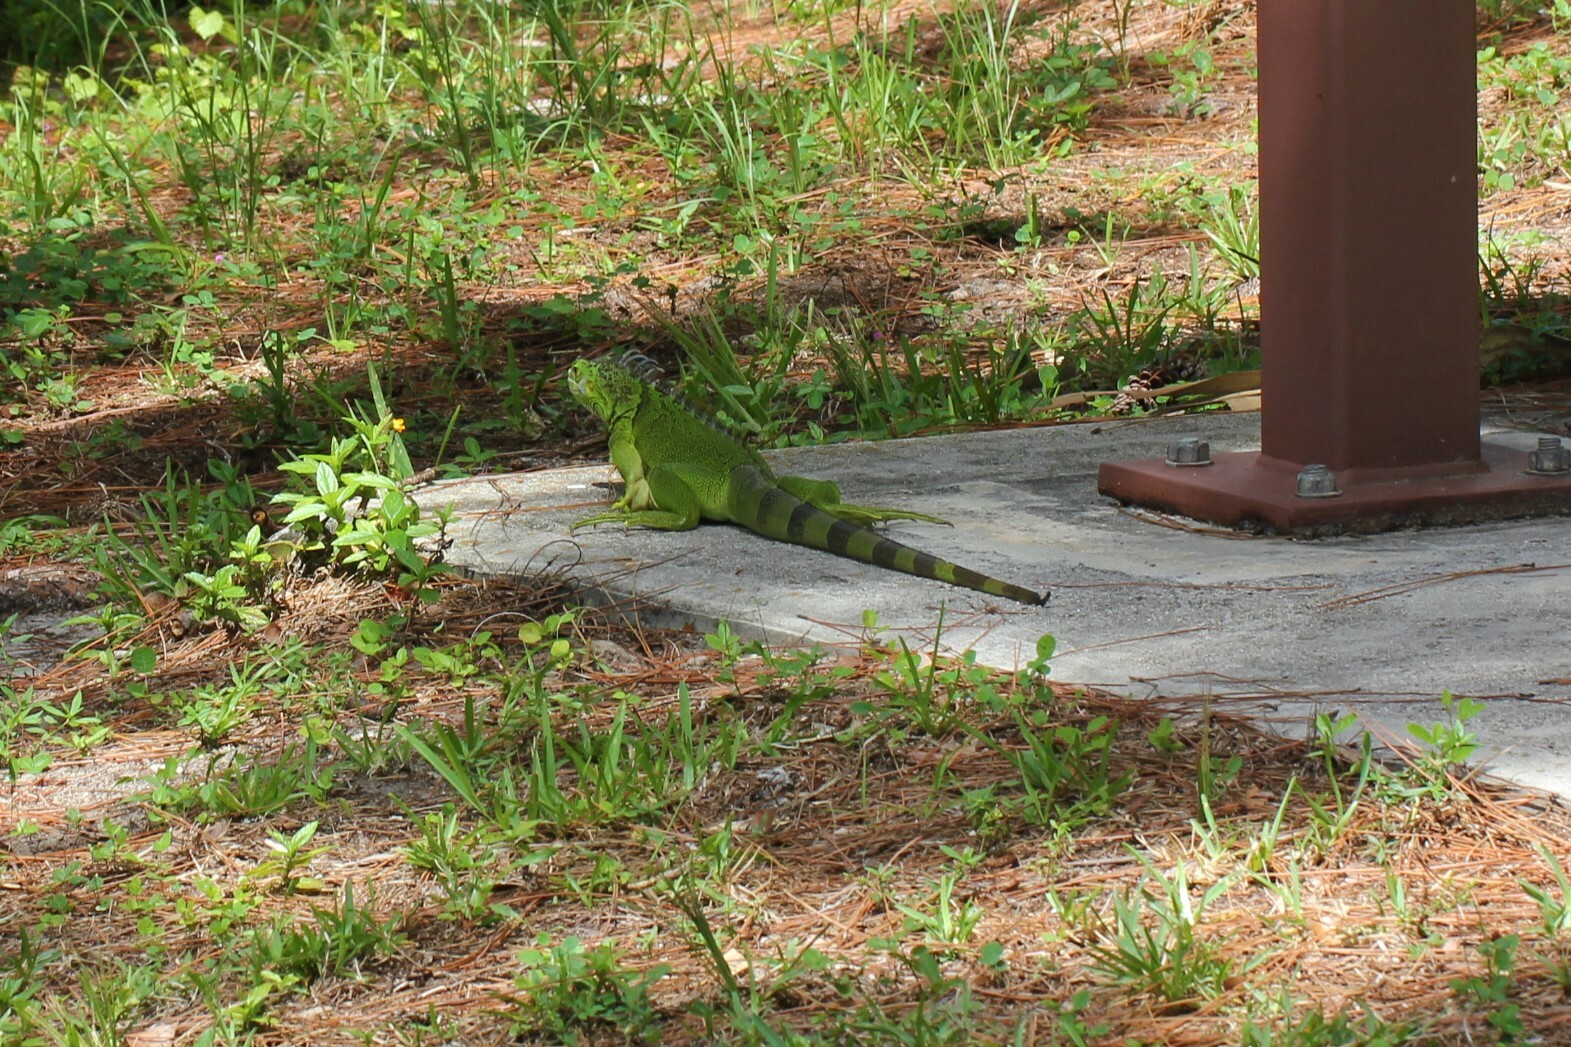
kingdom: Animalia
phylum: Chordata
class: Squamata
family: Iguanidae
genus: Iguana
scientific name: Iguana iguana
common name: Green iguana
